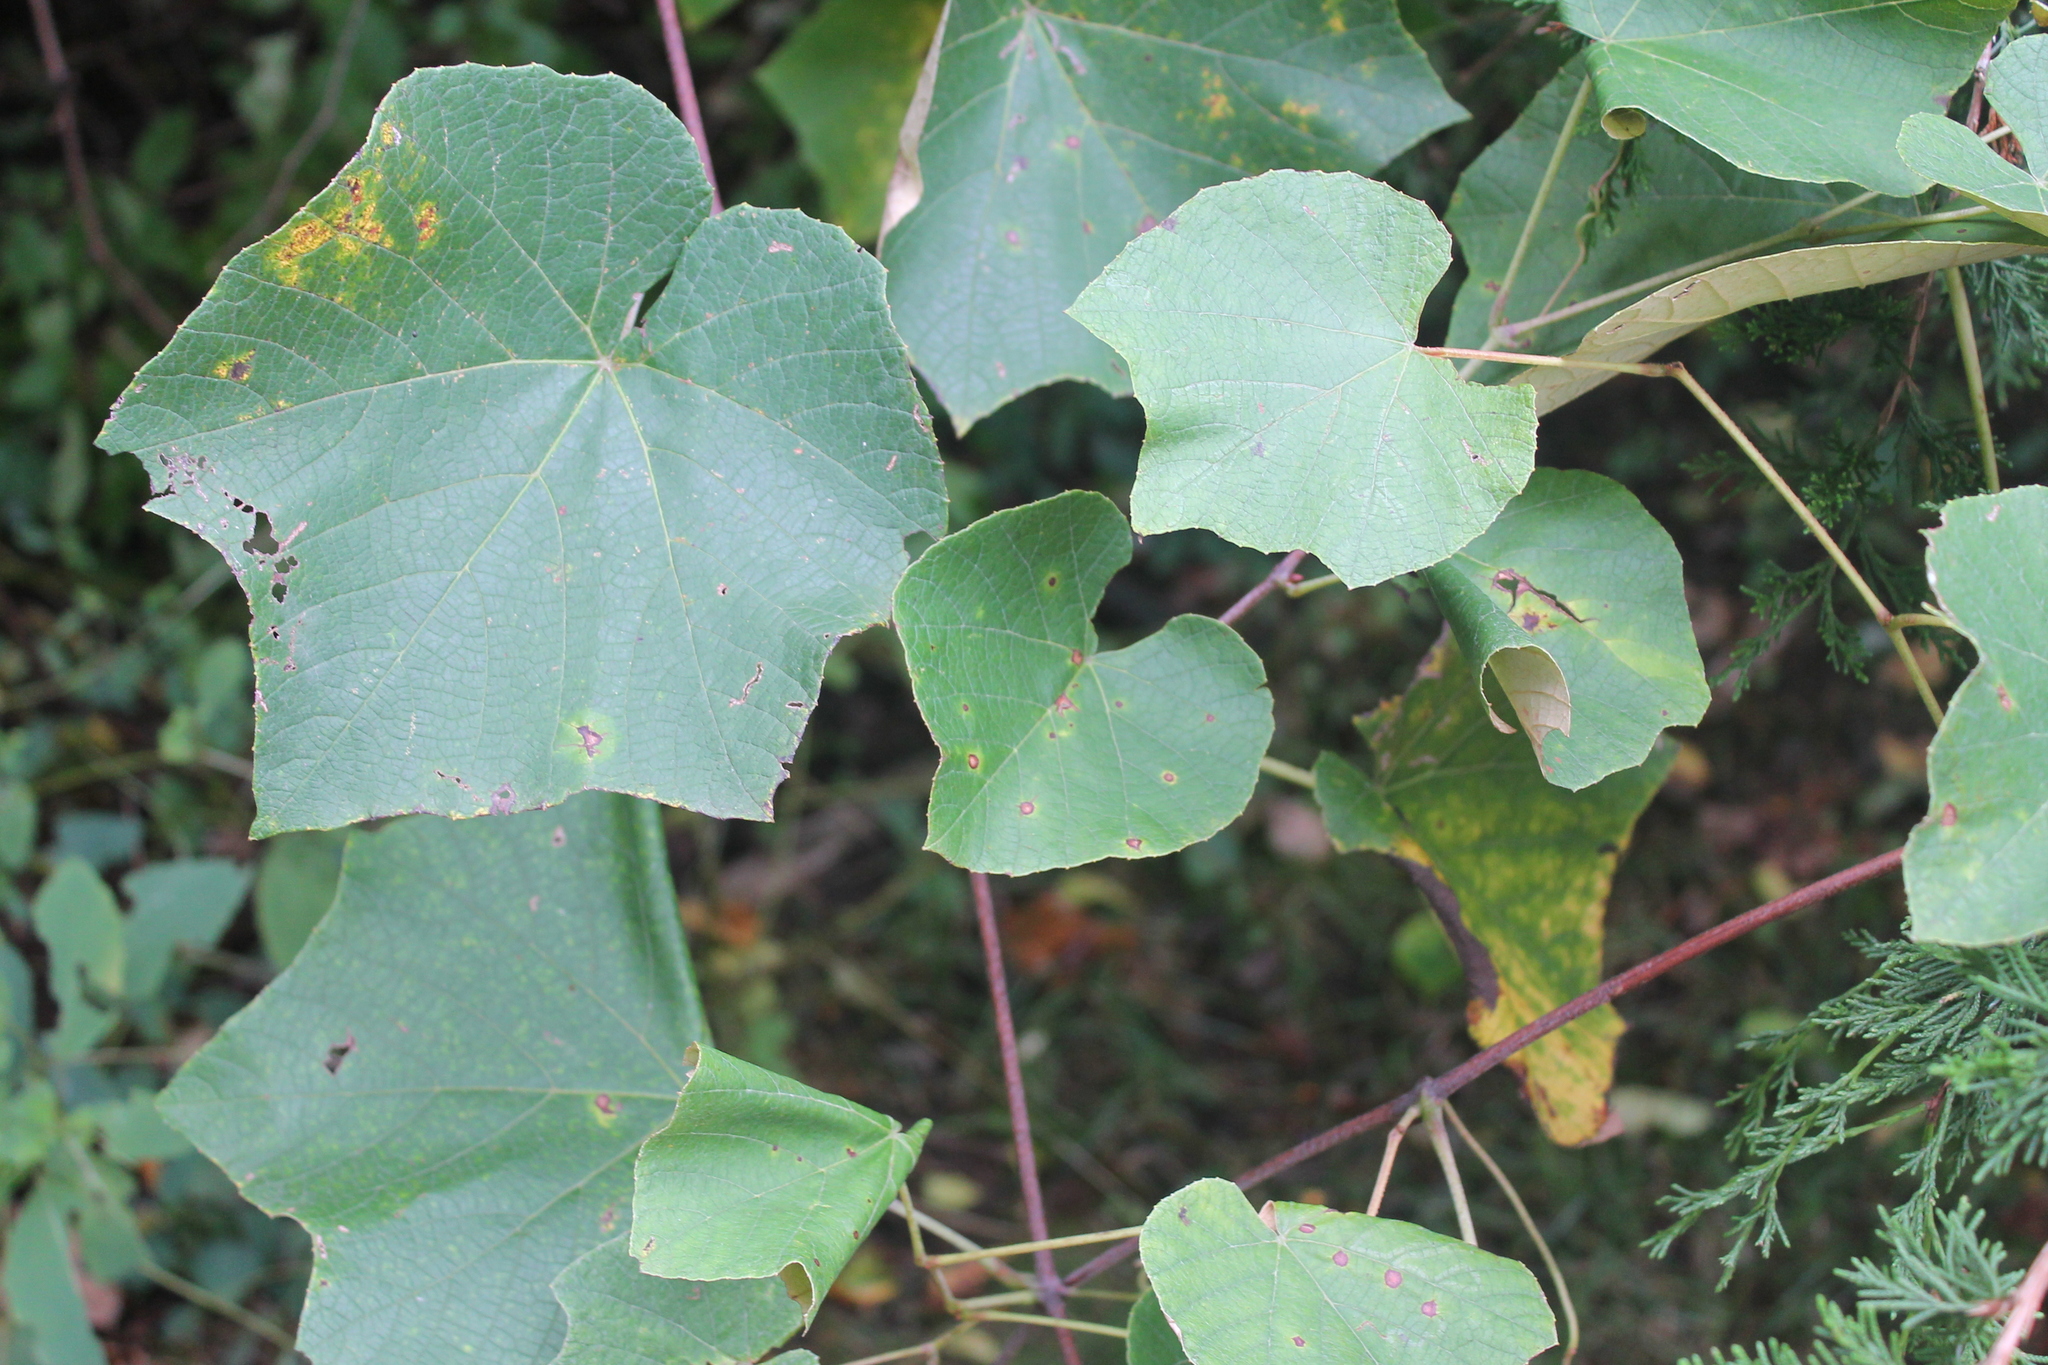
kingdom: Plantae
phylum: Tracheophyta
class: Magnoliopsida
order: Vitales
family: Vitaceae
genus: Vitis
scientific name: Vitis labrusca
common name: Concord grape
